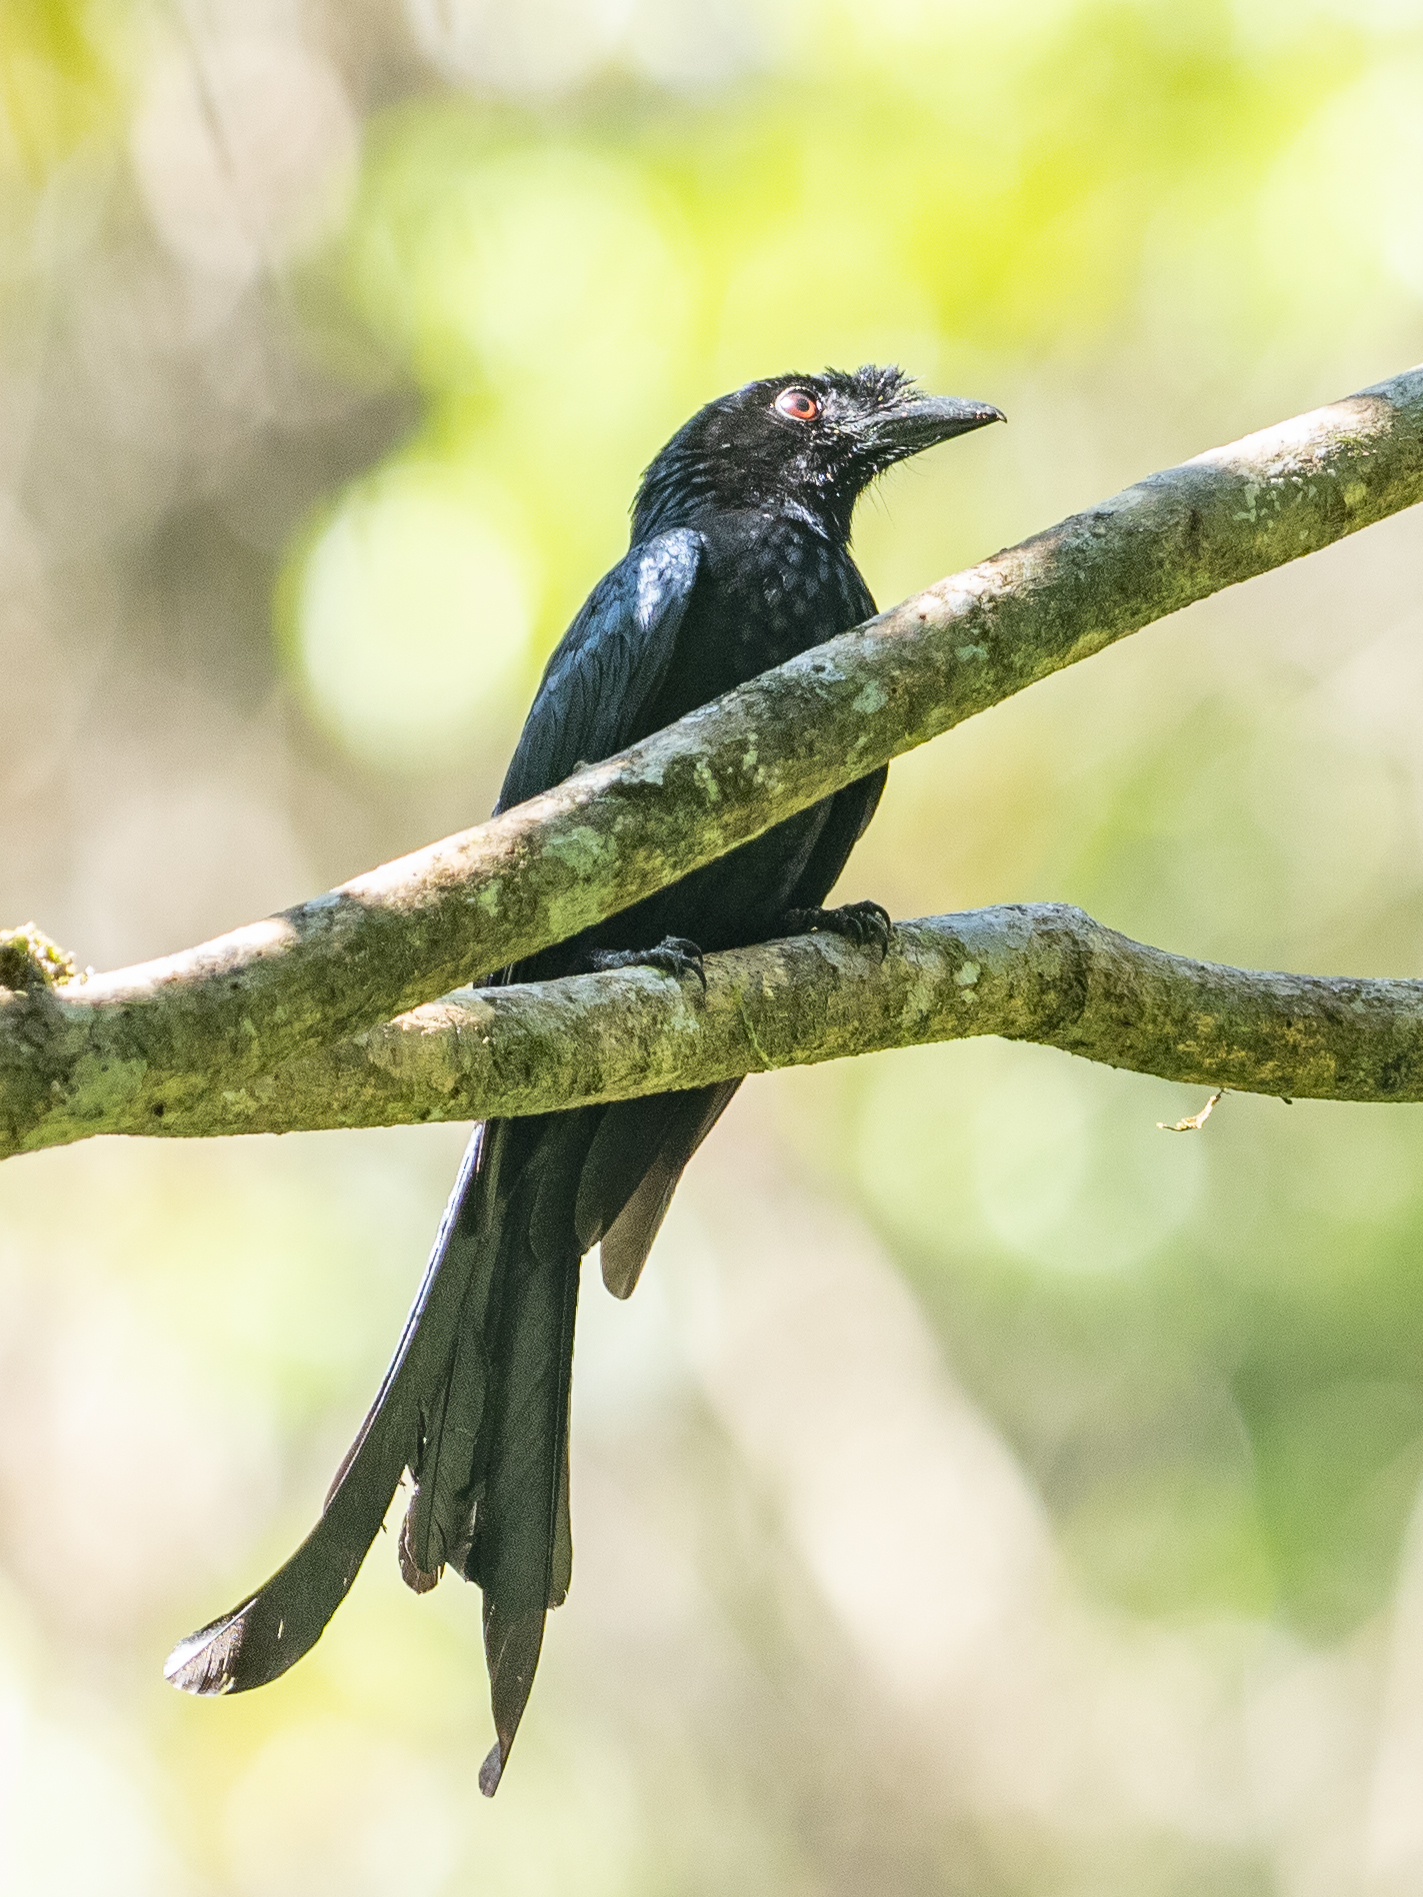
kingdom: Animalia
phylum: Chordata
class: Aves
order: Passeriformes
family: Dicruridae
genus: Dicrurus
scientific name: Dicrurus lophorinus
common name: Sri lanka drongo
